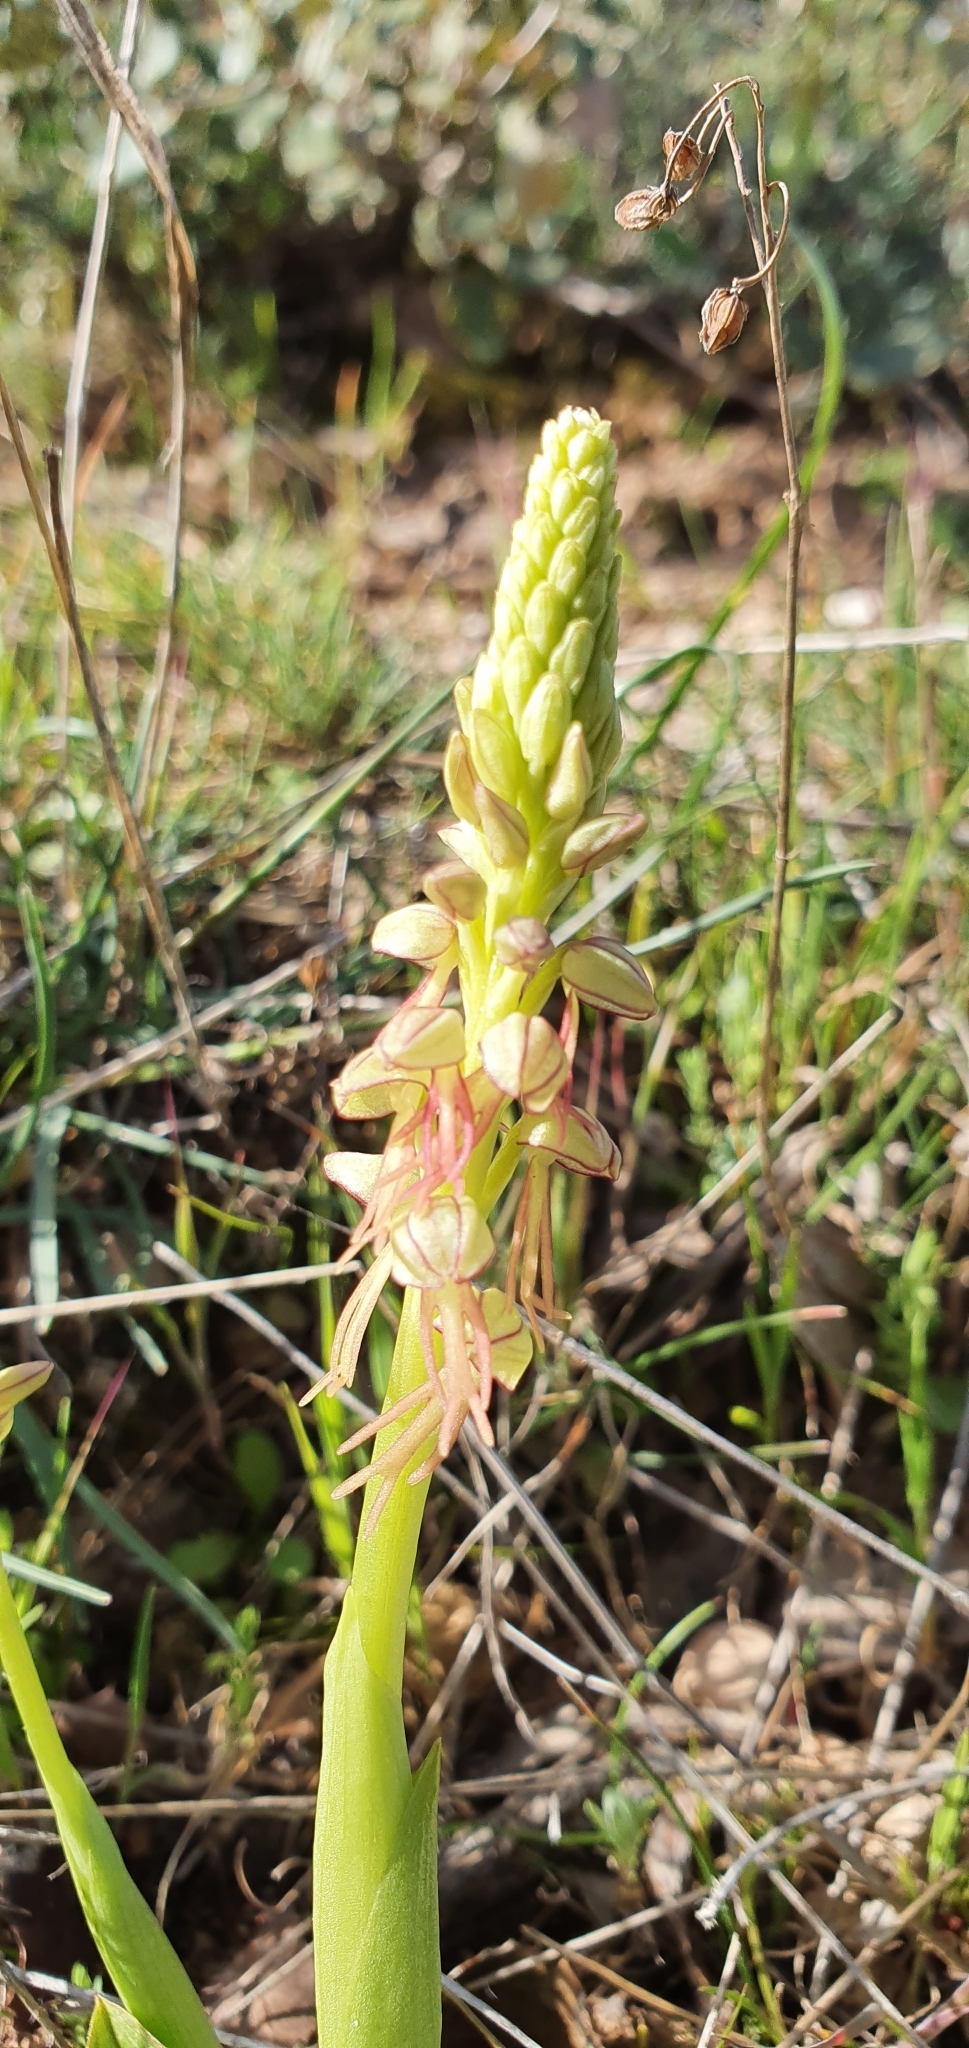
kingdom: Plantae
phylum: Tracheophyta
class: Liliopsida
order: Asparagales
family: Orchidaceae
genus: Orchis
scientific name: Orchis anthropophora
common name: Man orchid
